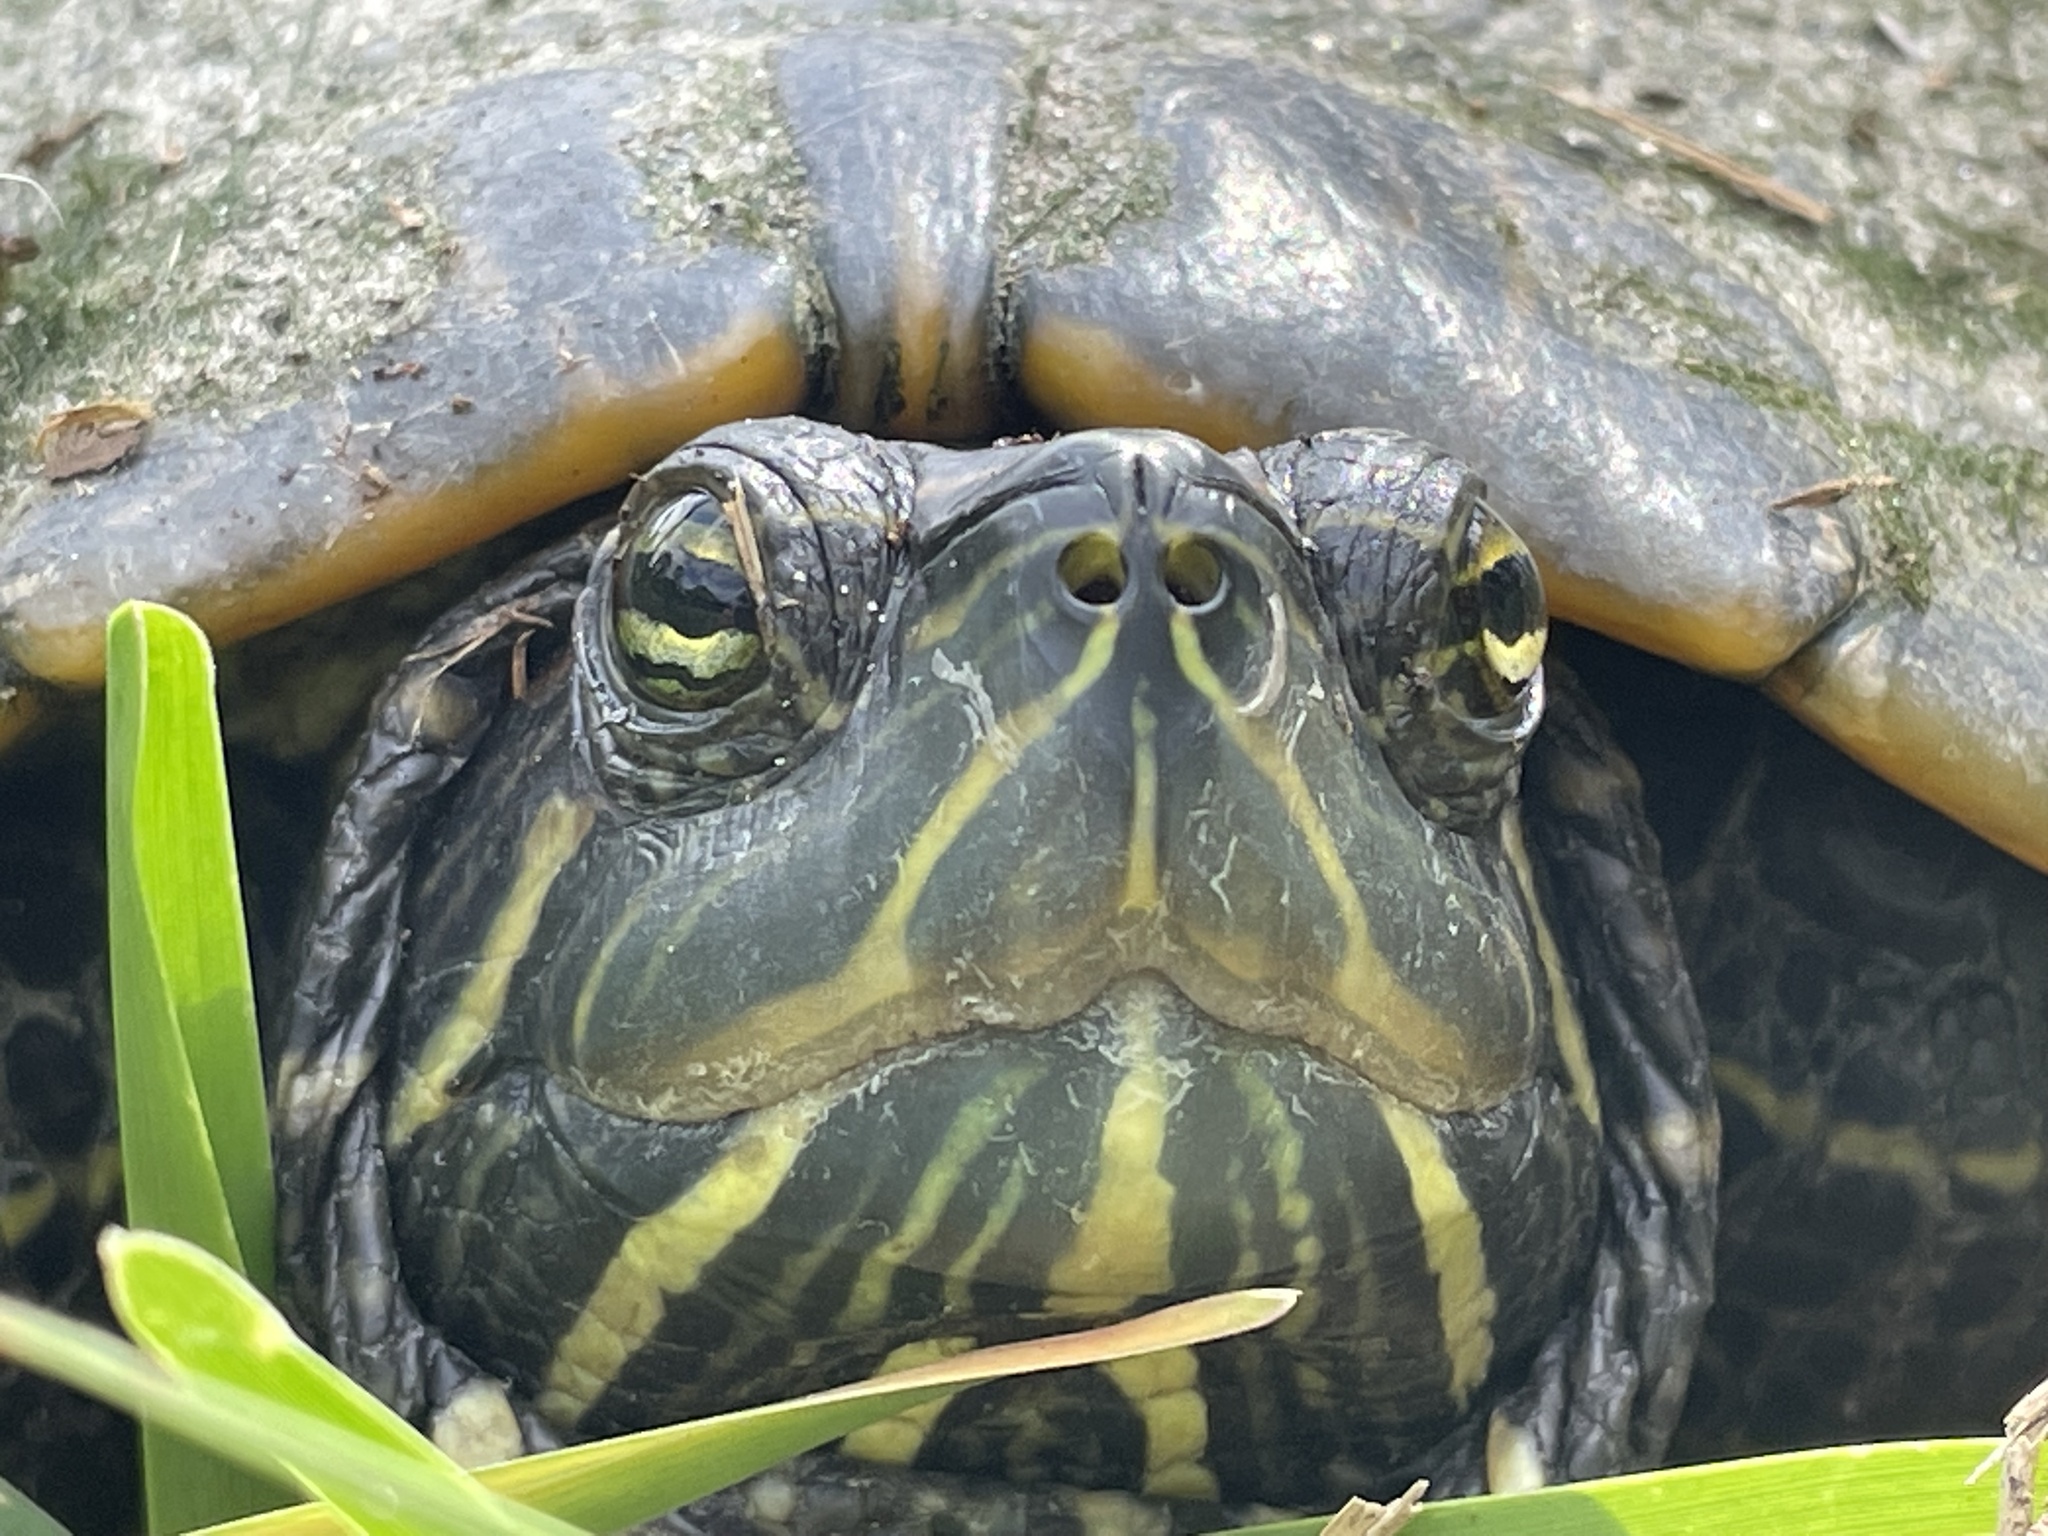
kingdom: Animalia
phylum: Chordata
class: Testudines
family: Emydidae
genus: Trachemys
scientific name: Trachemys scripta
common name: Slider
